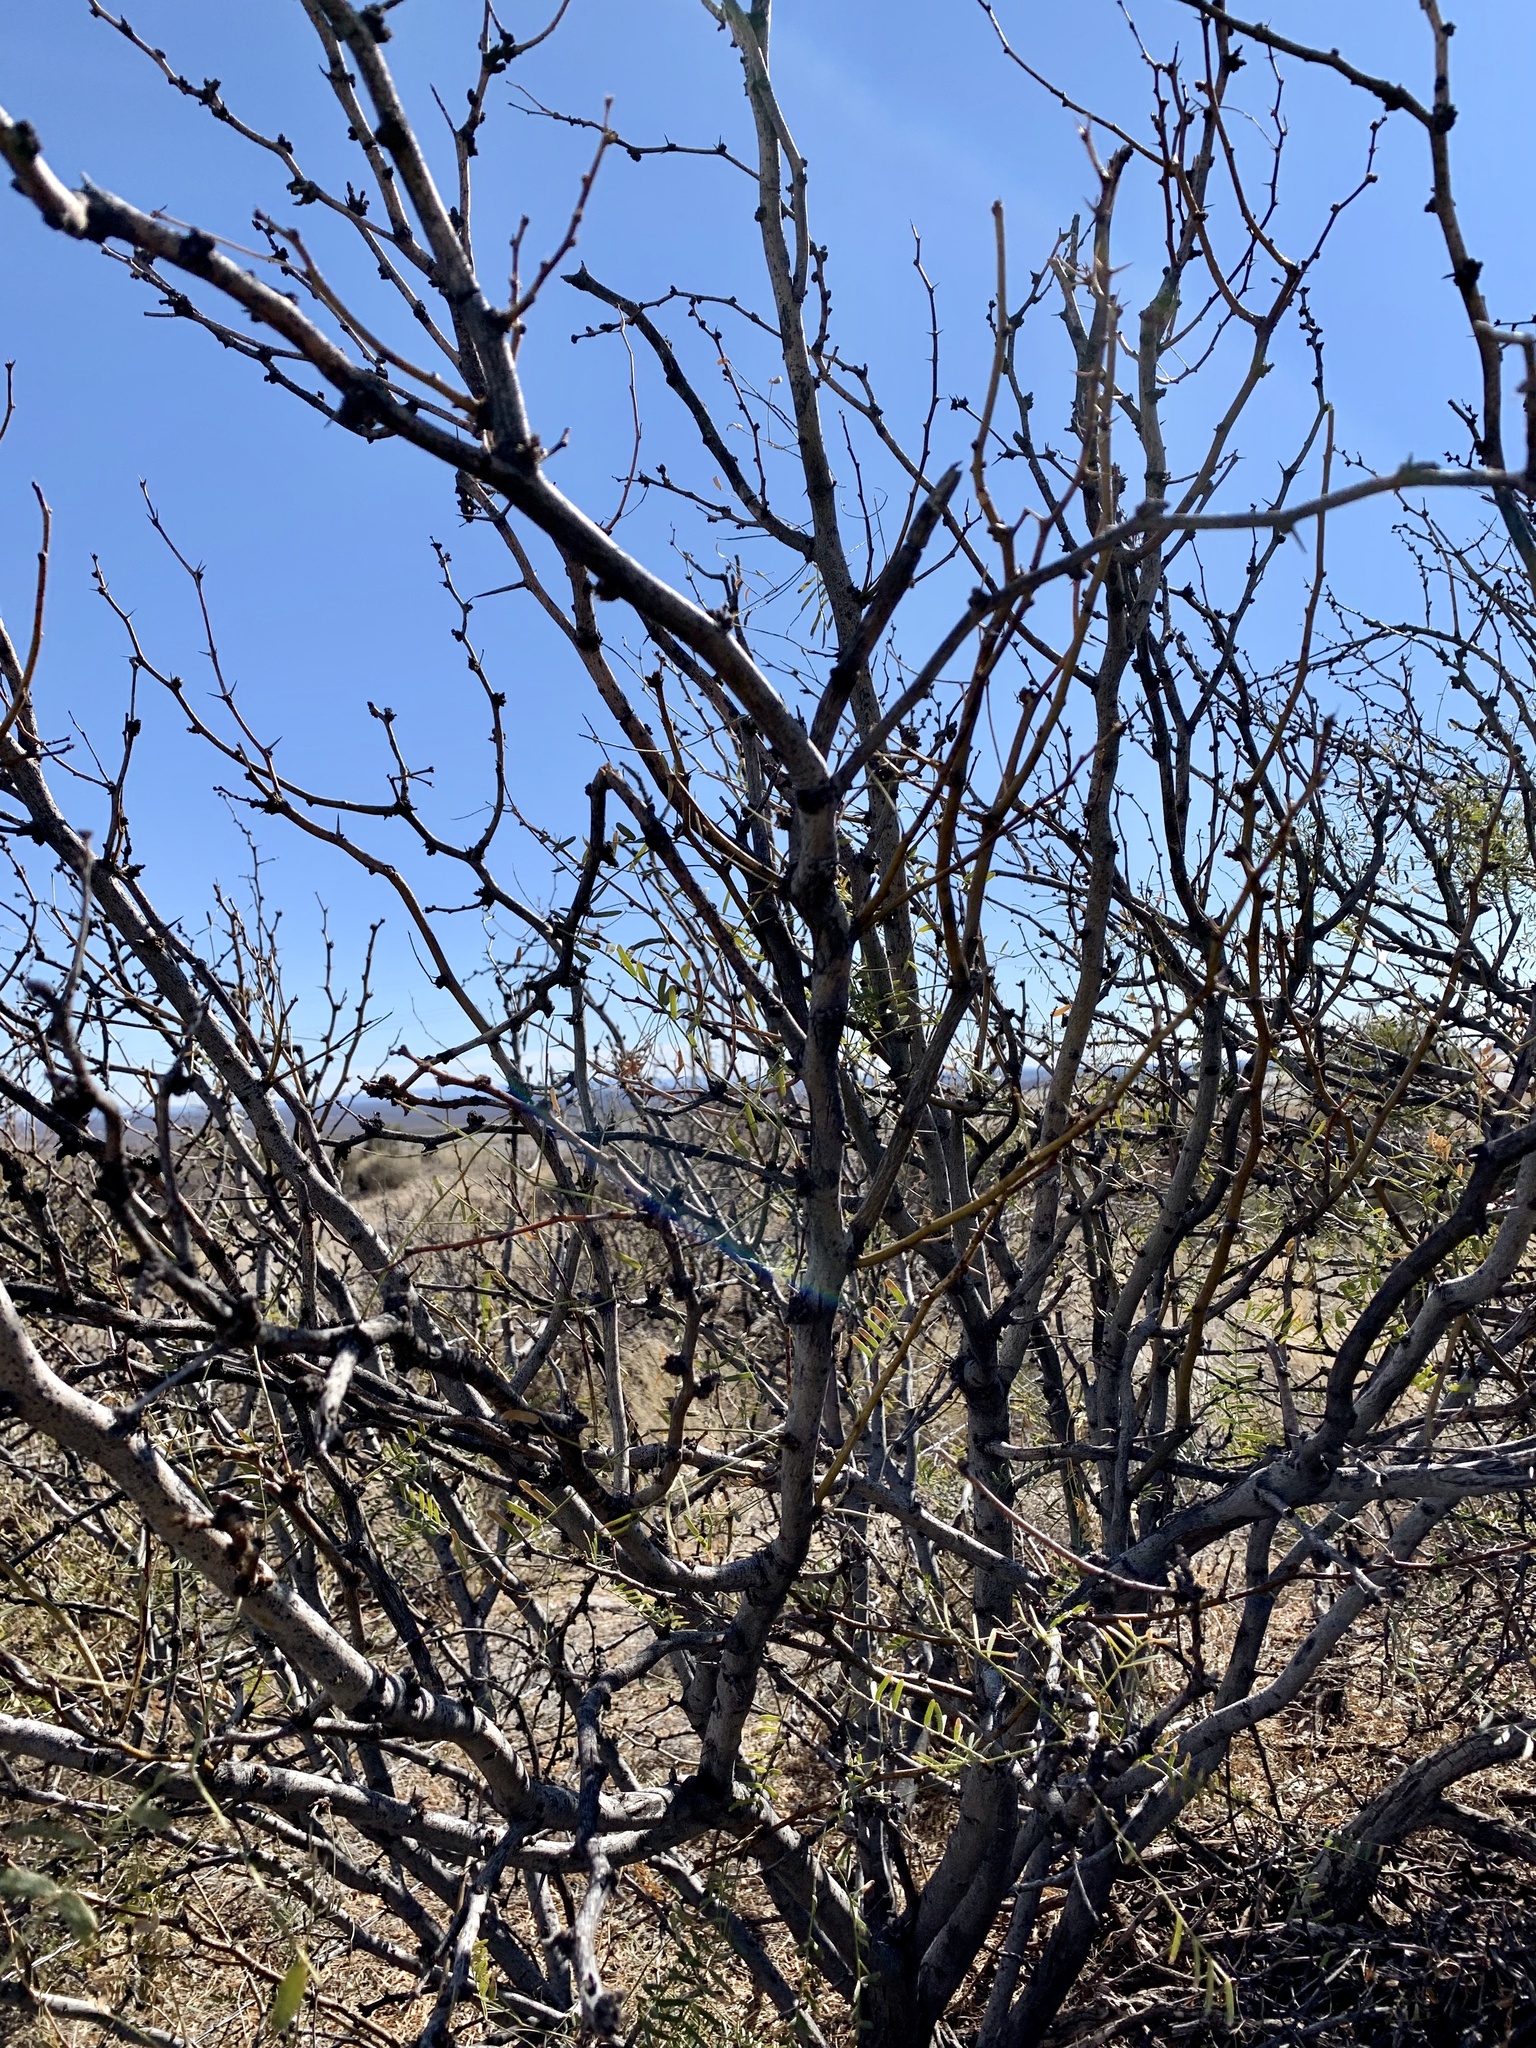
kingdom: Plantae
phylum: Tracheophyta
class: Magnoliopsida
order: Fabales
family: Fabaceae
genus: Prosopis
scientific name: Prosopis glandulosa
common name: Honey mesquite
